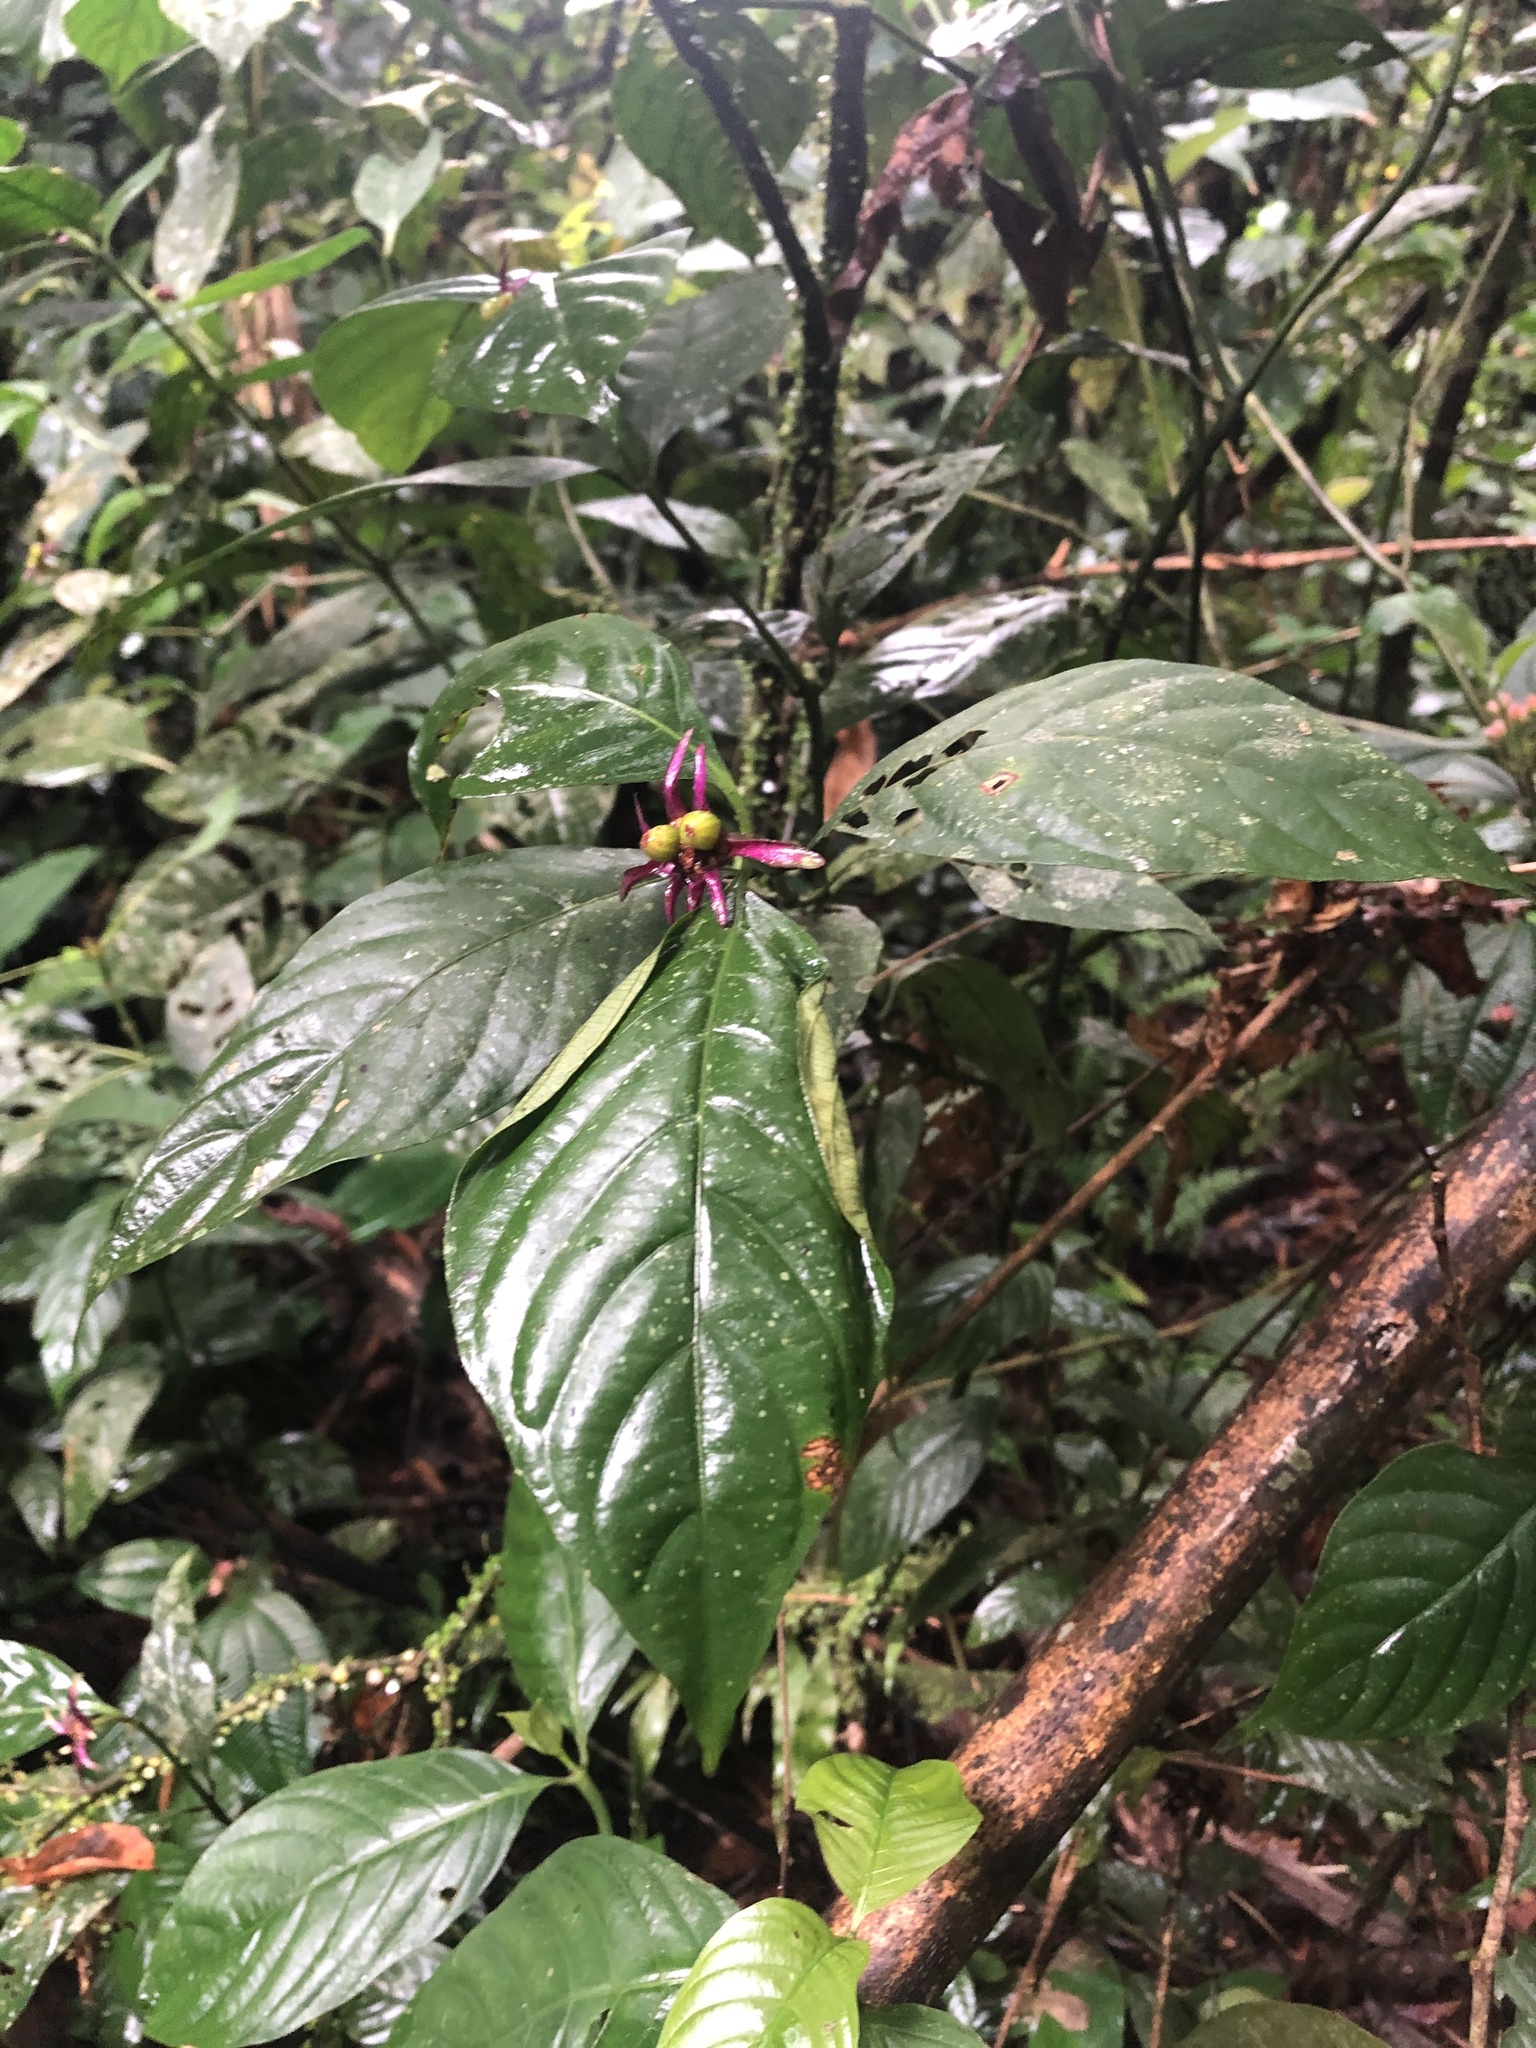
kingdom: Plantae
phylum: Tracheophyta
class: Magnoliopsida
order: Gentianales
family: Rubiaceae
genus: Palicourea
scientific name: Palicourea longiinvolucrata
